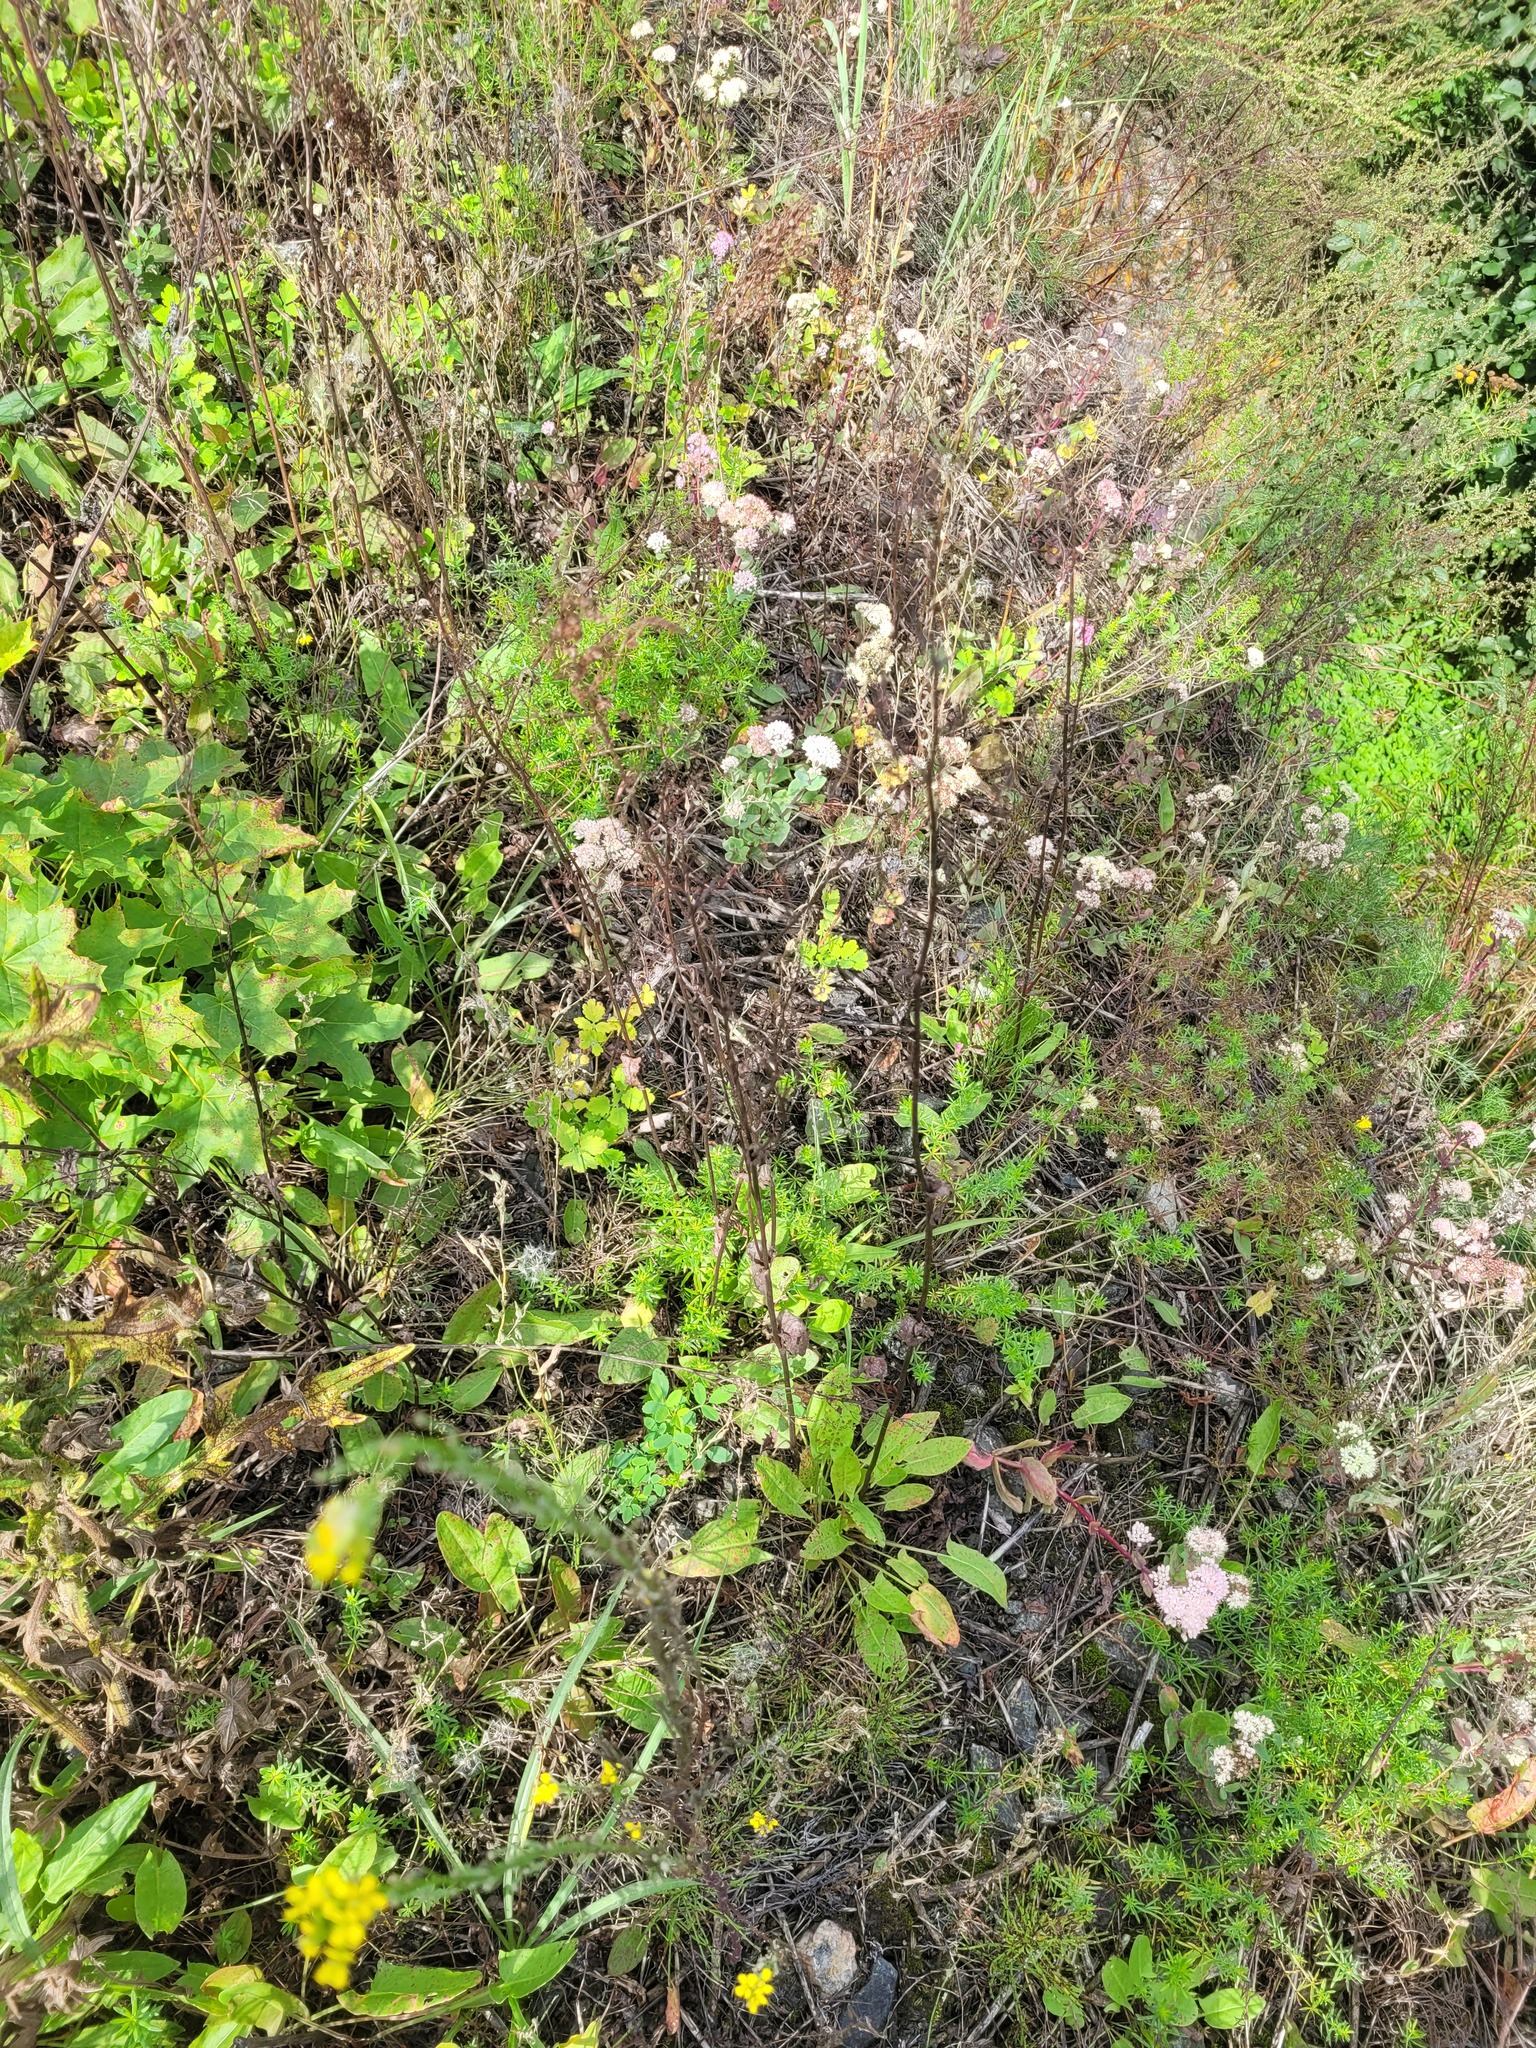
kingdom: Plantae
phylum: Tracheophyta
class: Magnoliopsida
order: Caryophyllales
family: Polygonaceae
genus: Rumex
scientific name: Rumex thyrsiflorus
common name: Garden sorrel
